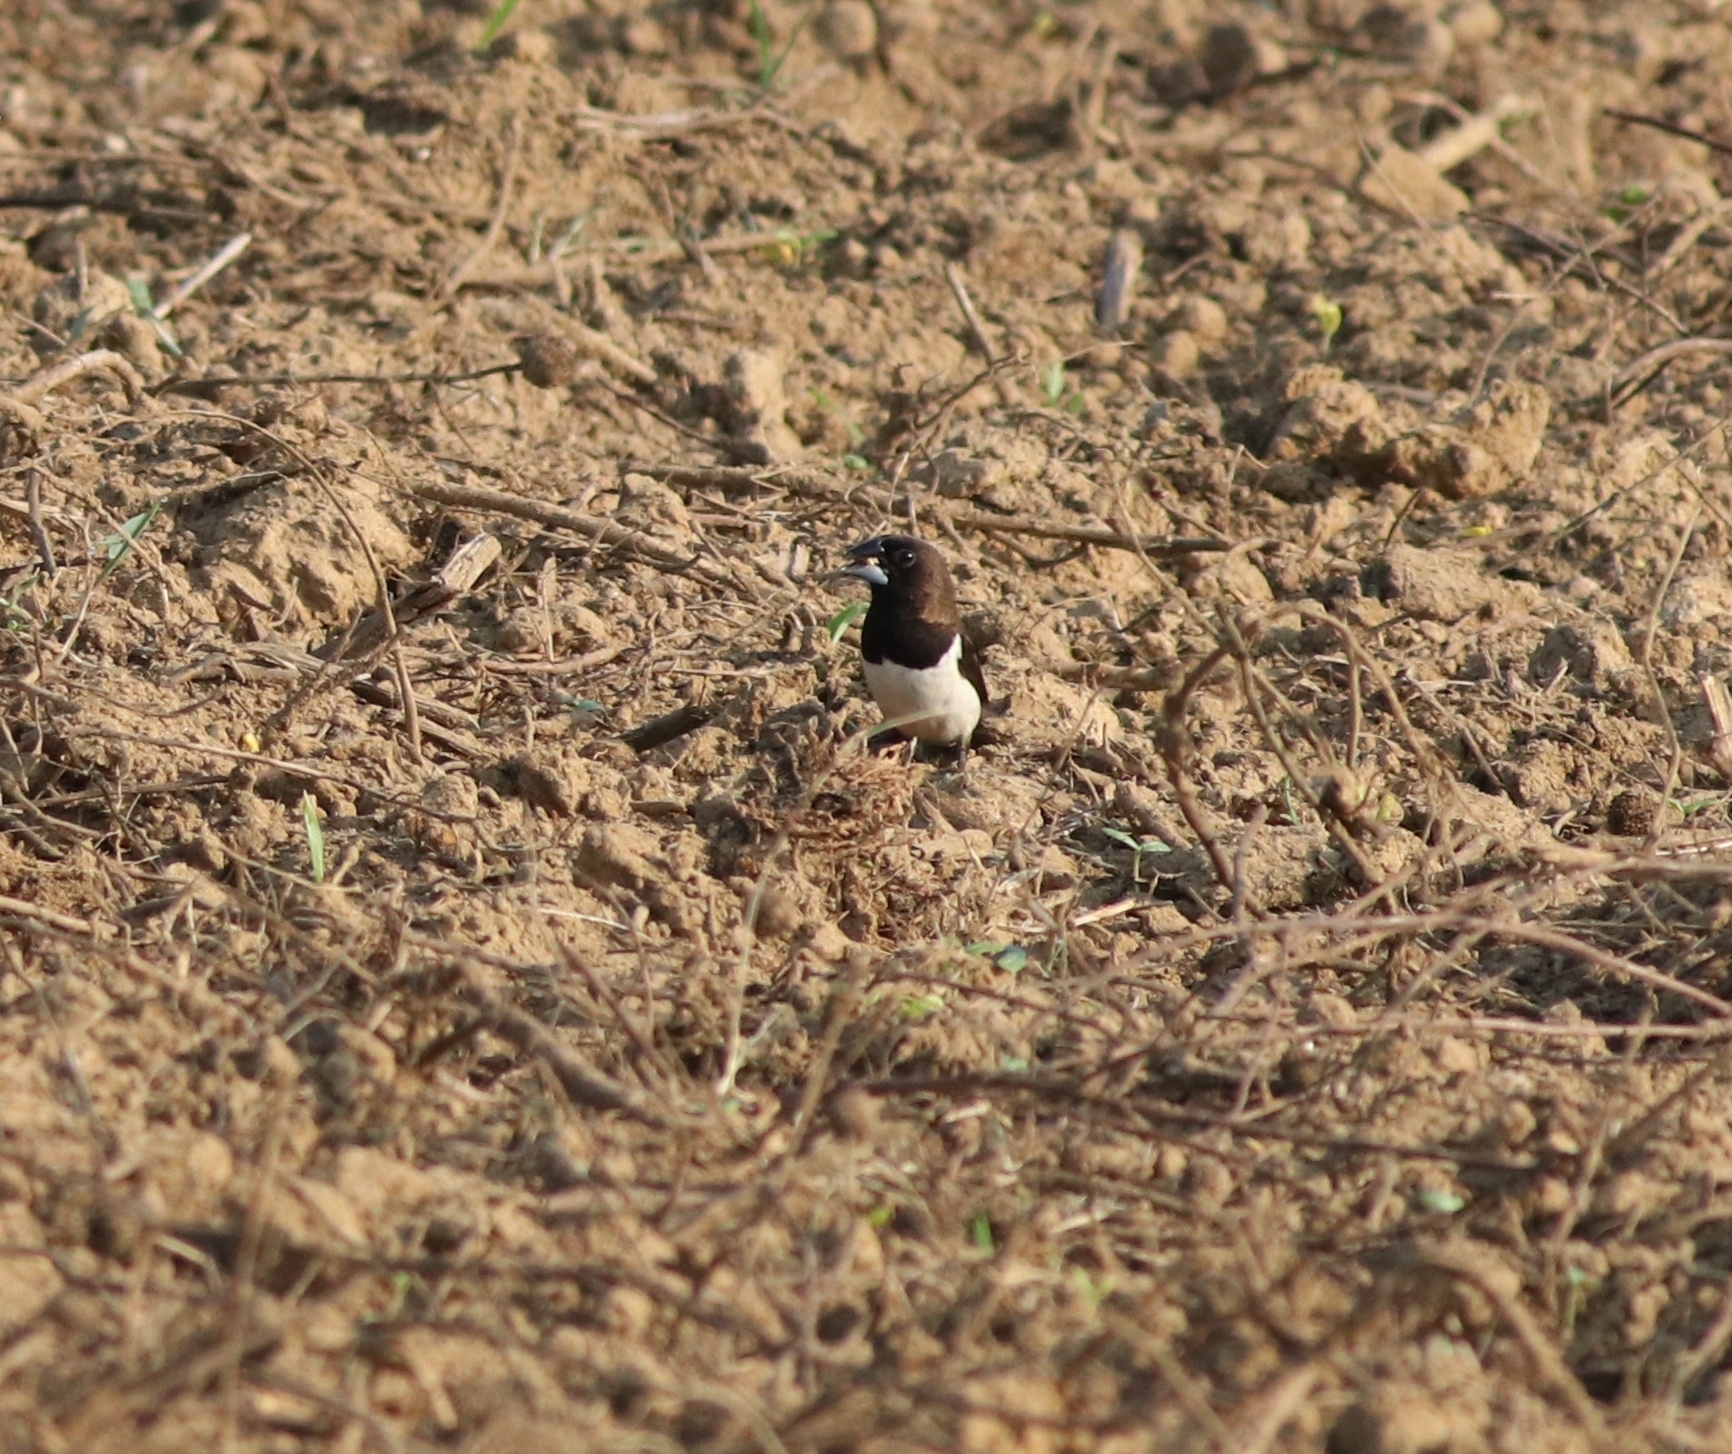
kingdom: Animalia
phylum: Chordata
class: Aves
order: Passeriformes
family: Estrildidae
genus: Lonchura
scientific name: Lonchura striata
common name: White-rumped munia
